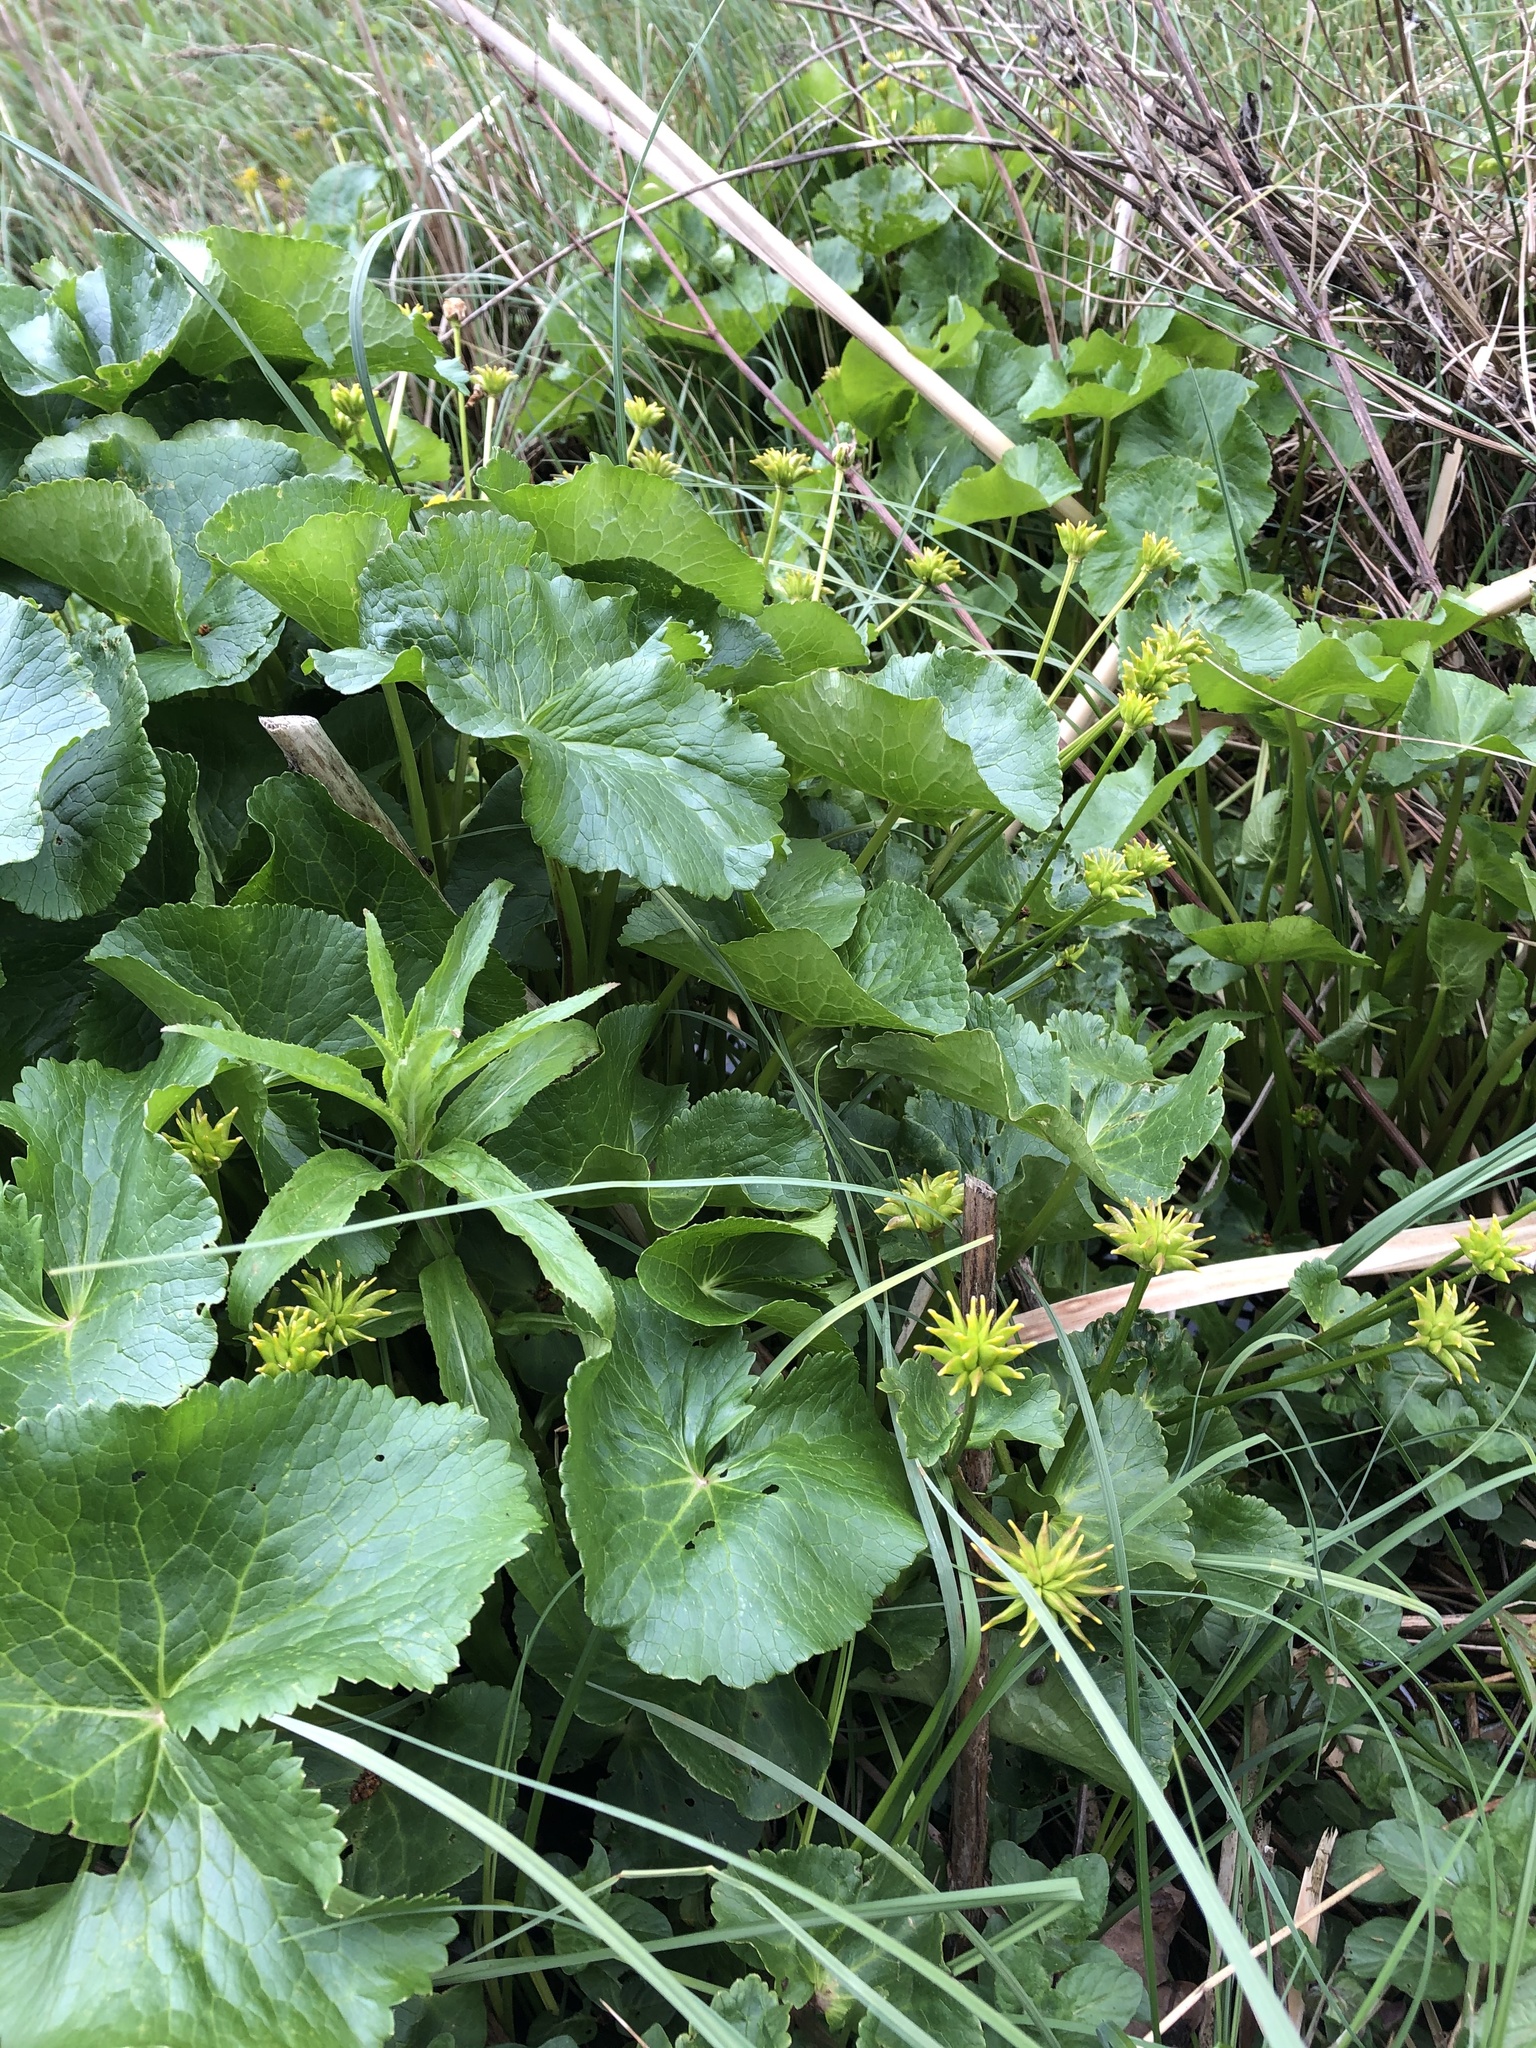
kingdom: Plantae
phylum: Tracheophyta
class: Magnoliopsida
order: Ranunculales
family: Ranunculaceae
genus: Caltha
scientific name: Caltha palustris
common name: Marsh marigold
